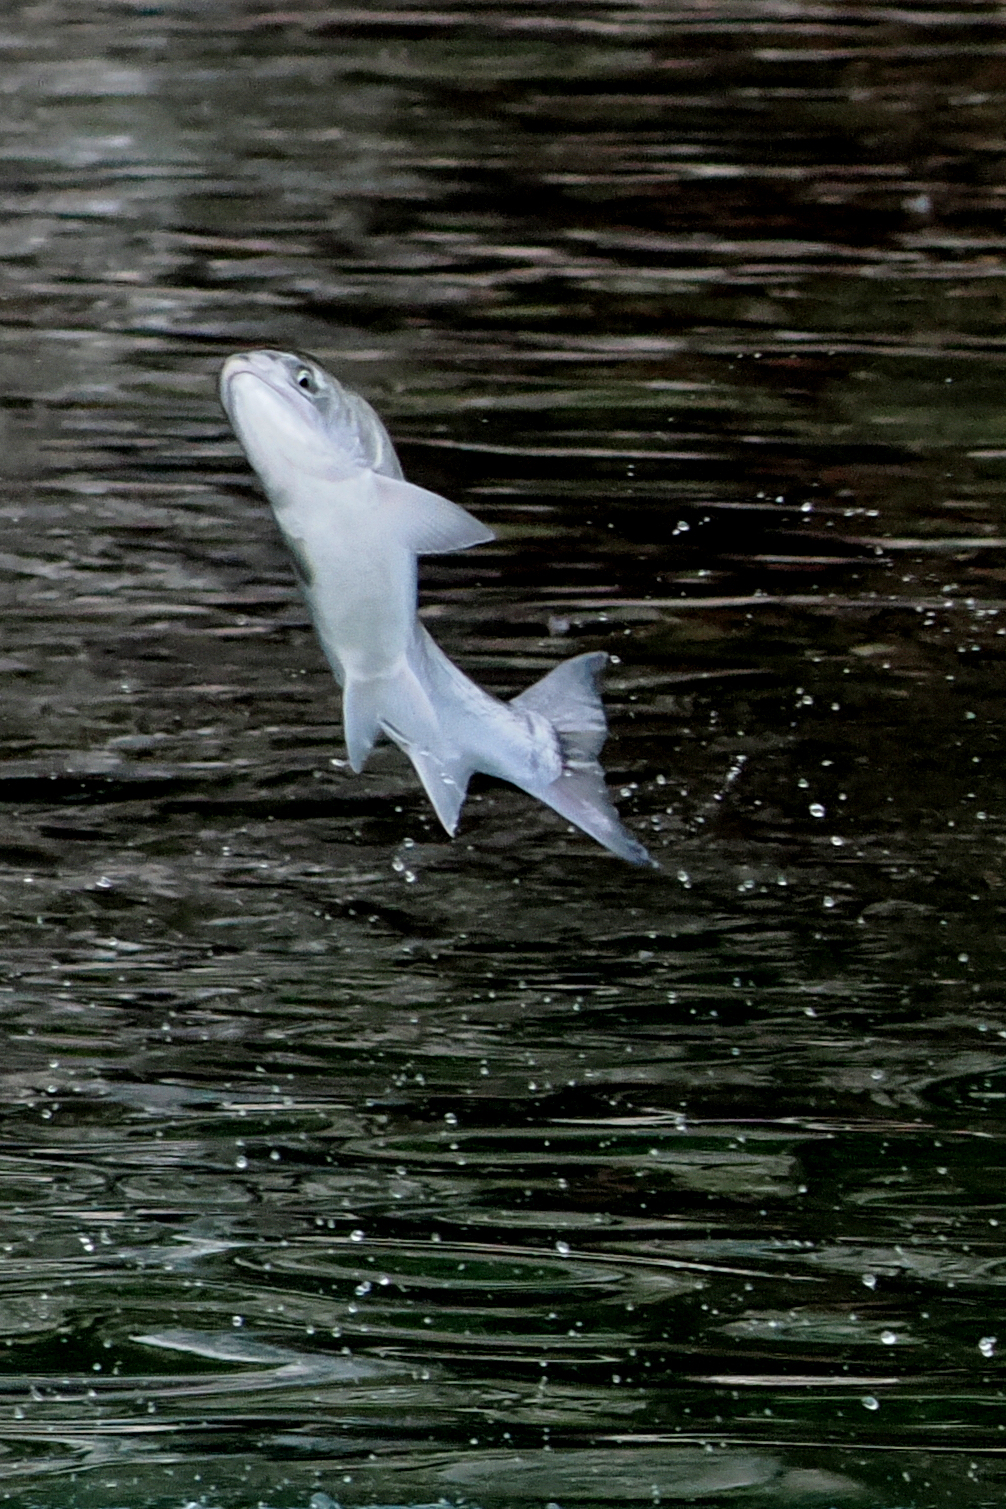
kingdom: Animalia
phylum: Chordata
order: Salmoniformes
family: Salmonidae
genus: Oncorhynchus
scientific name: Oncorhynchus kisutch
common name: Coho salmon
